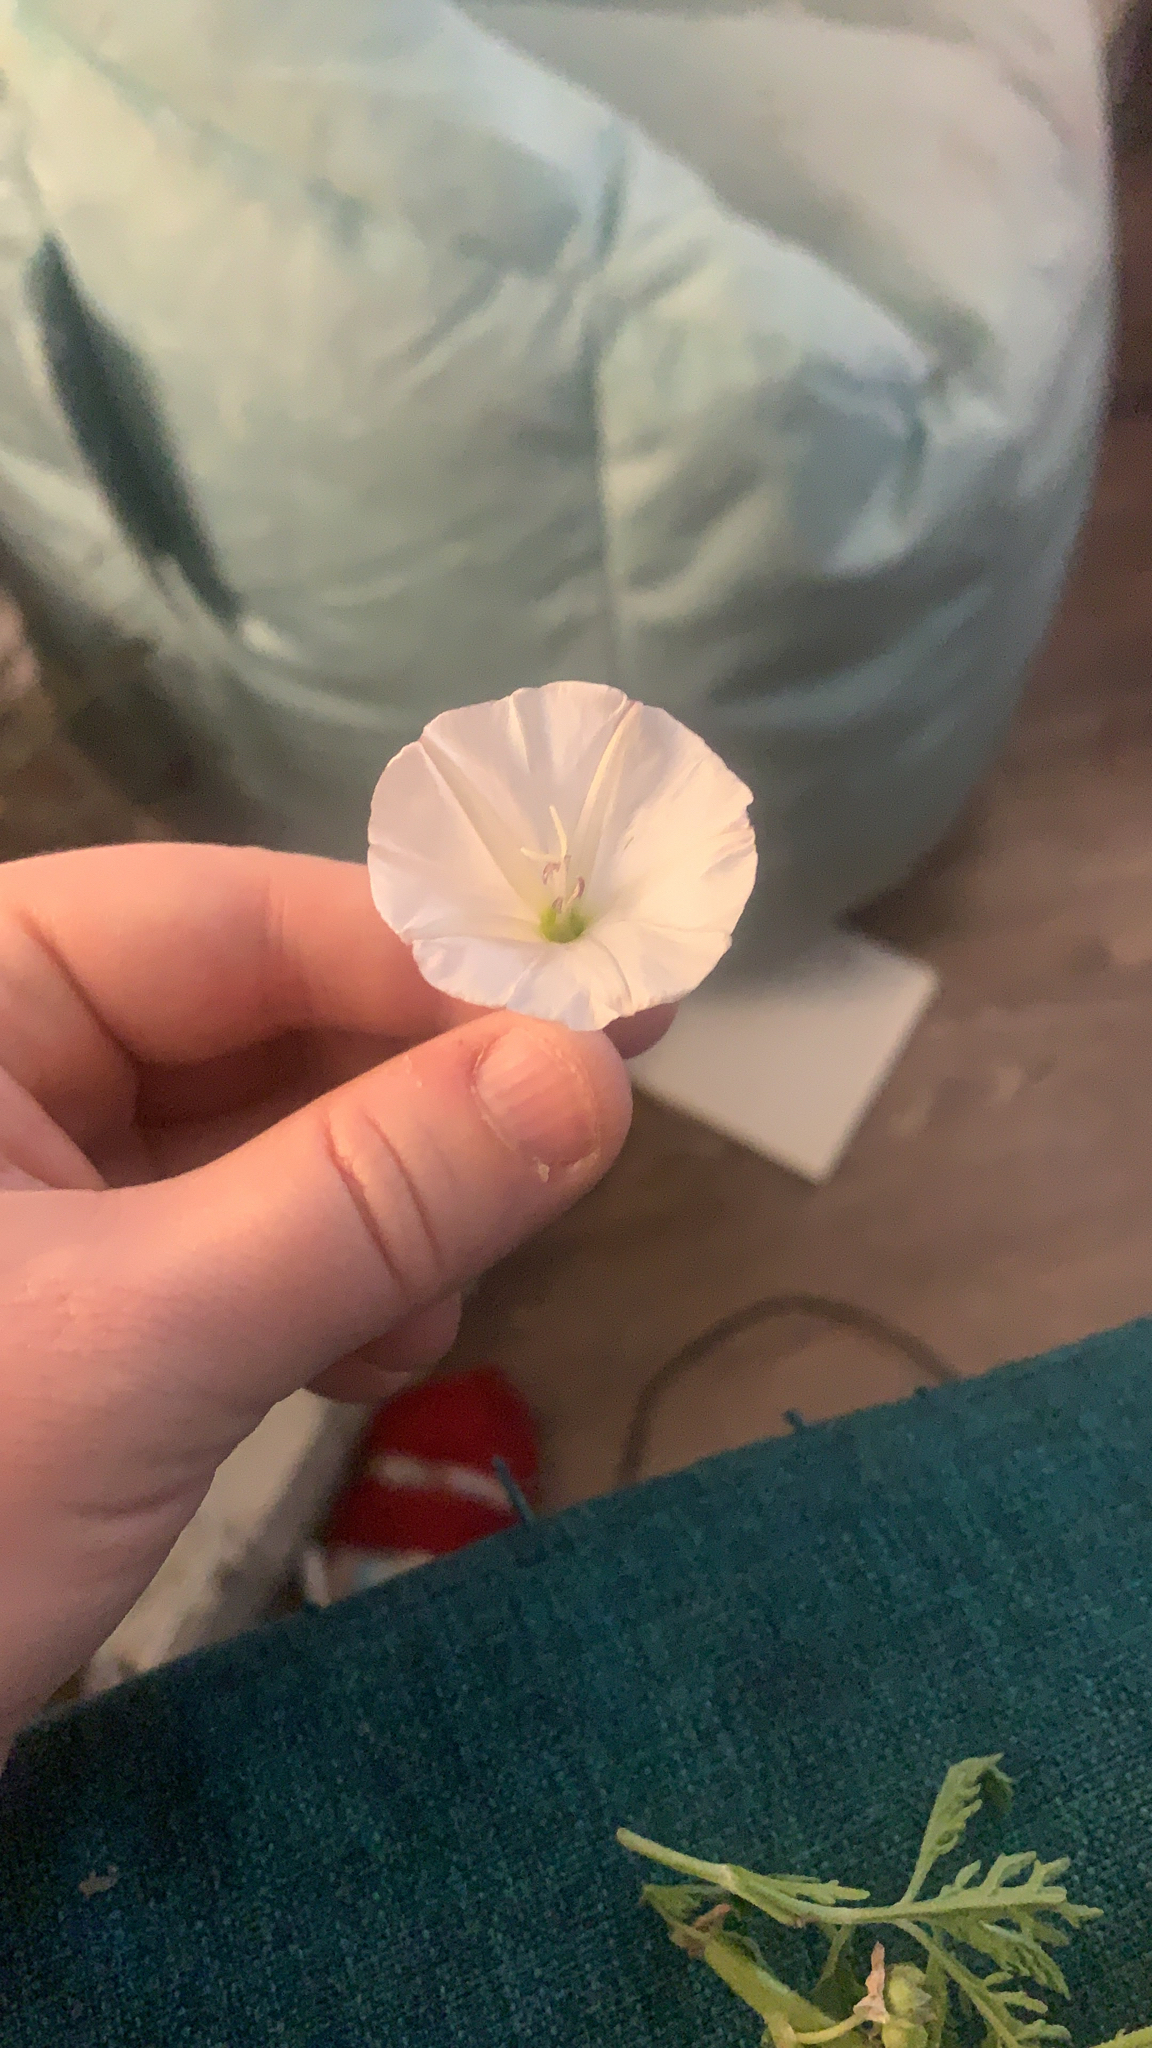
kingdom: Plantae
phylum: Tracheophyta
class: Magnoliopsida
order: Solanales
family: Convolvulaceae
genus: Convolvulus
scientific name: Convolvulus arvensis
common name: Field bindweed
